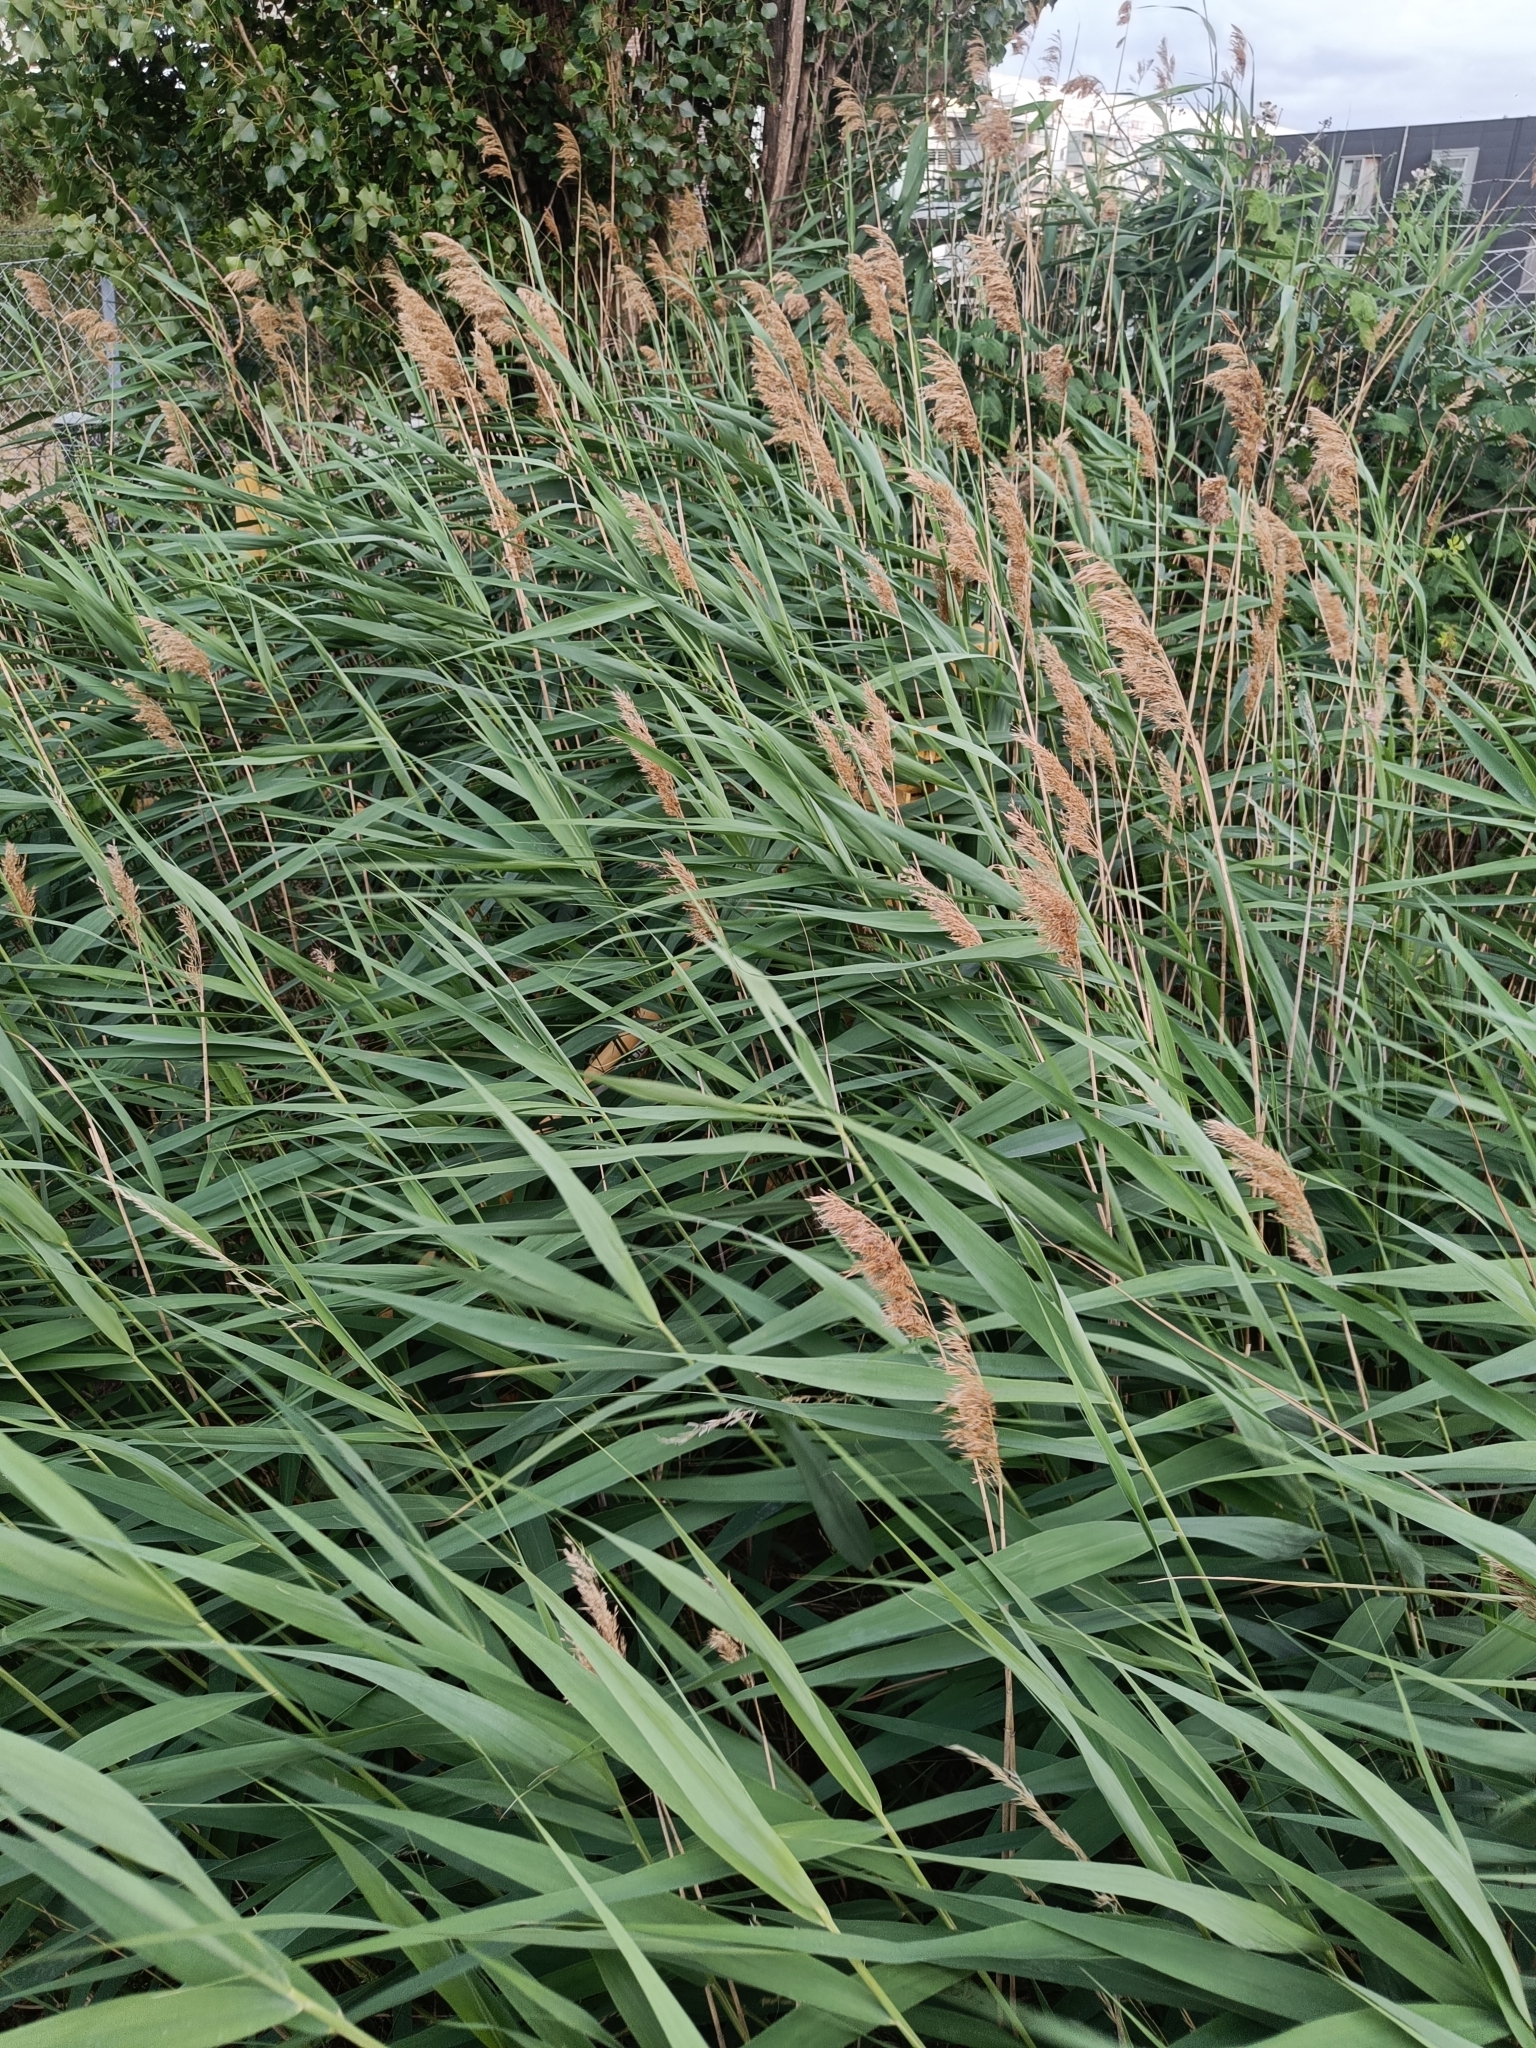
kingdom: Plantae
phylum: Tracheophyta
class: Liliopsida
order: Poales
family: Poaceae
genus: Phragmites
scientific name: Phragmites australis
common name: Common reed
